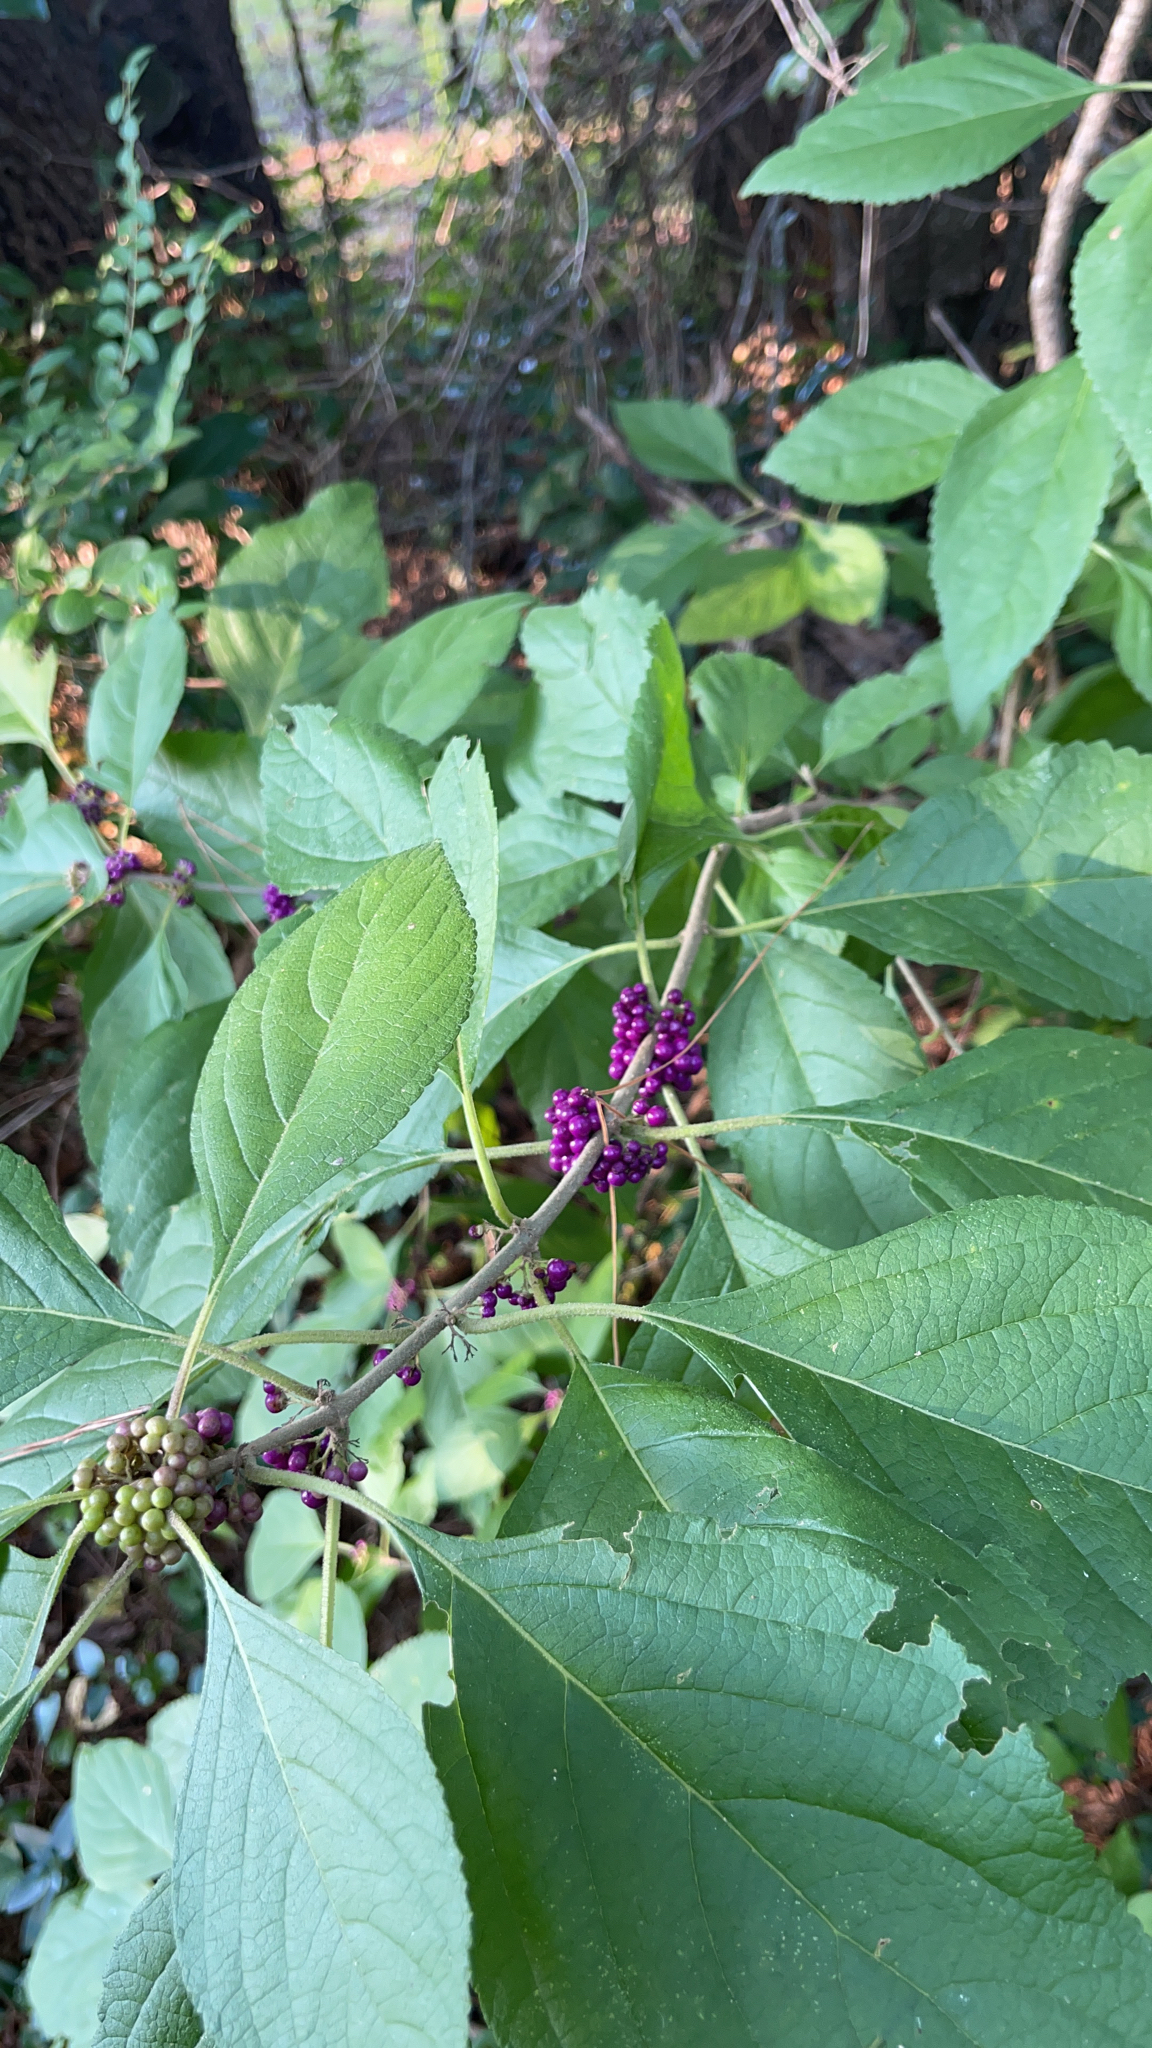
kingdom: Plantae
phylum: Tracheophyta
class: Magnoliopsida
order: Lamiales
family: Lamiaceae
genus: Callicarpa
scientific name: Callicarpa americana
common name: American beautyberry
